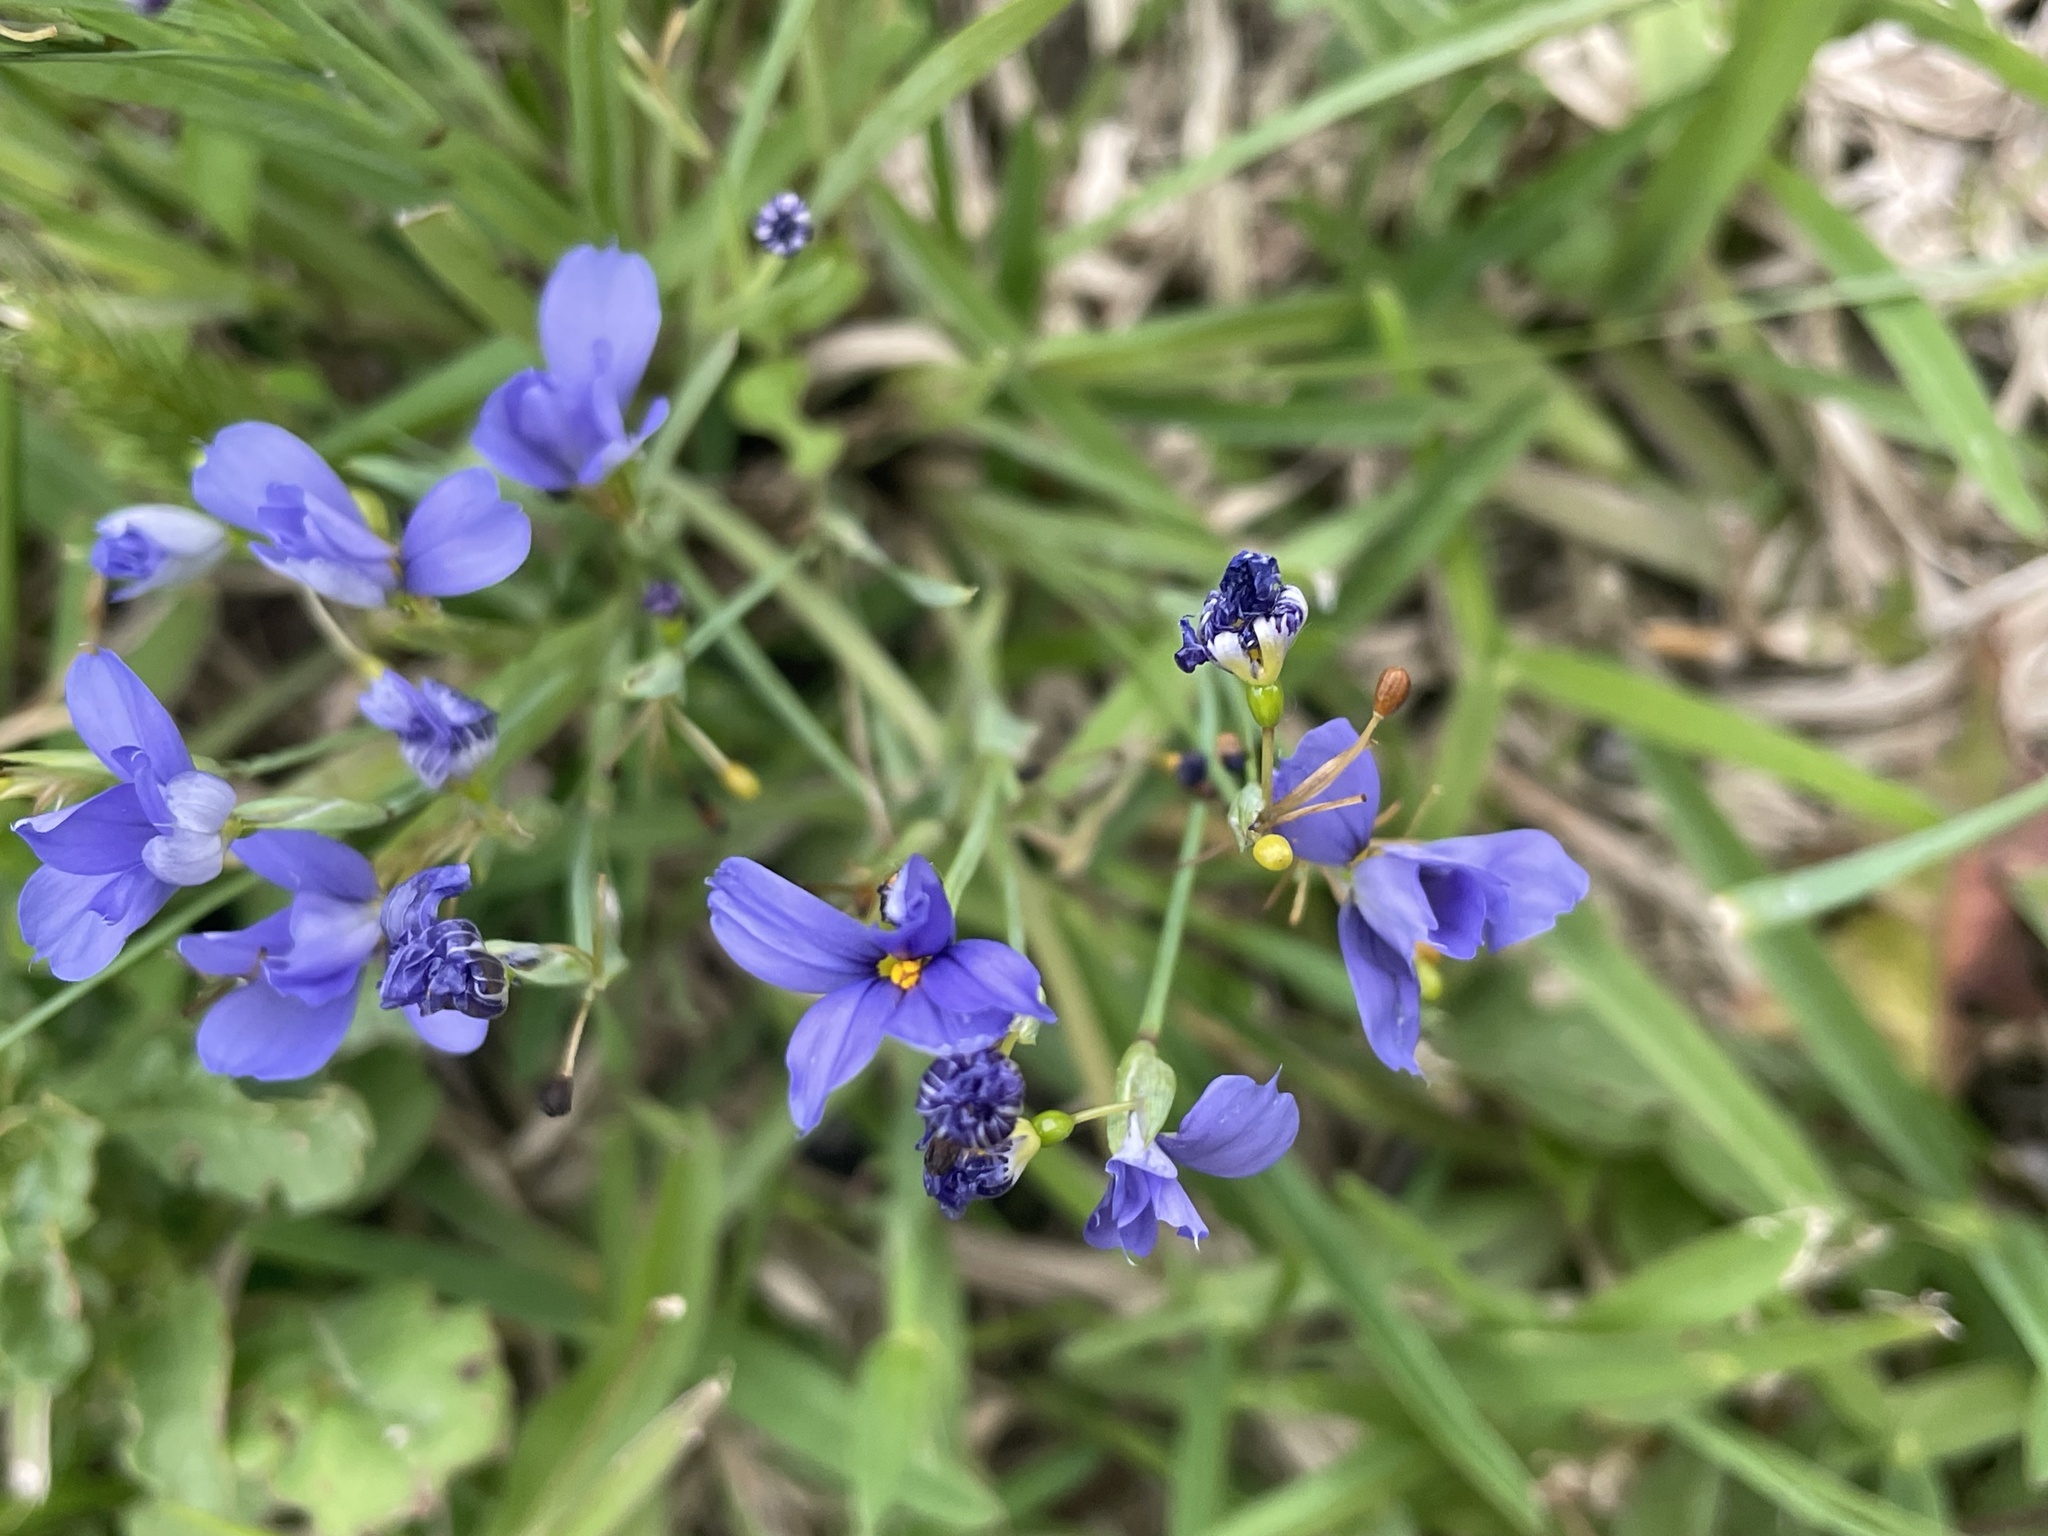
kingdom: Plantae
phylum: Tracheophyta
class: Liliopsida
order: Asparagales
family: Iridaceae
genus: Sisyrinchium
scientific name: Sisyrinchium pruinosum
